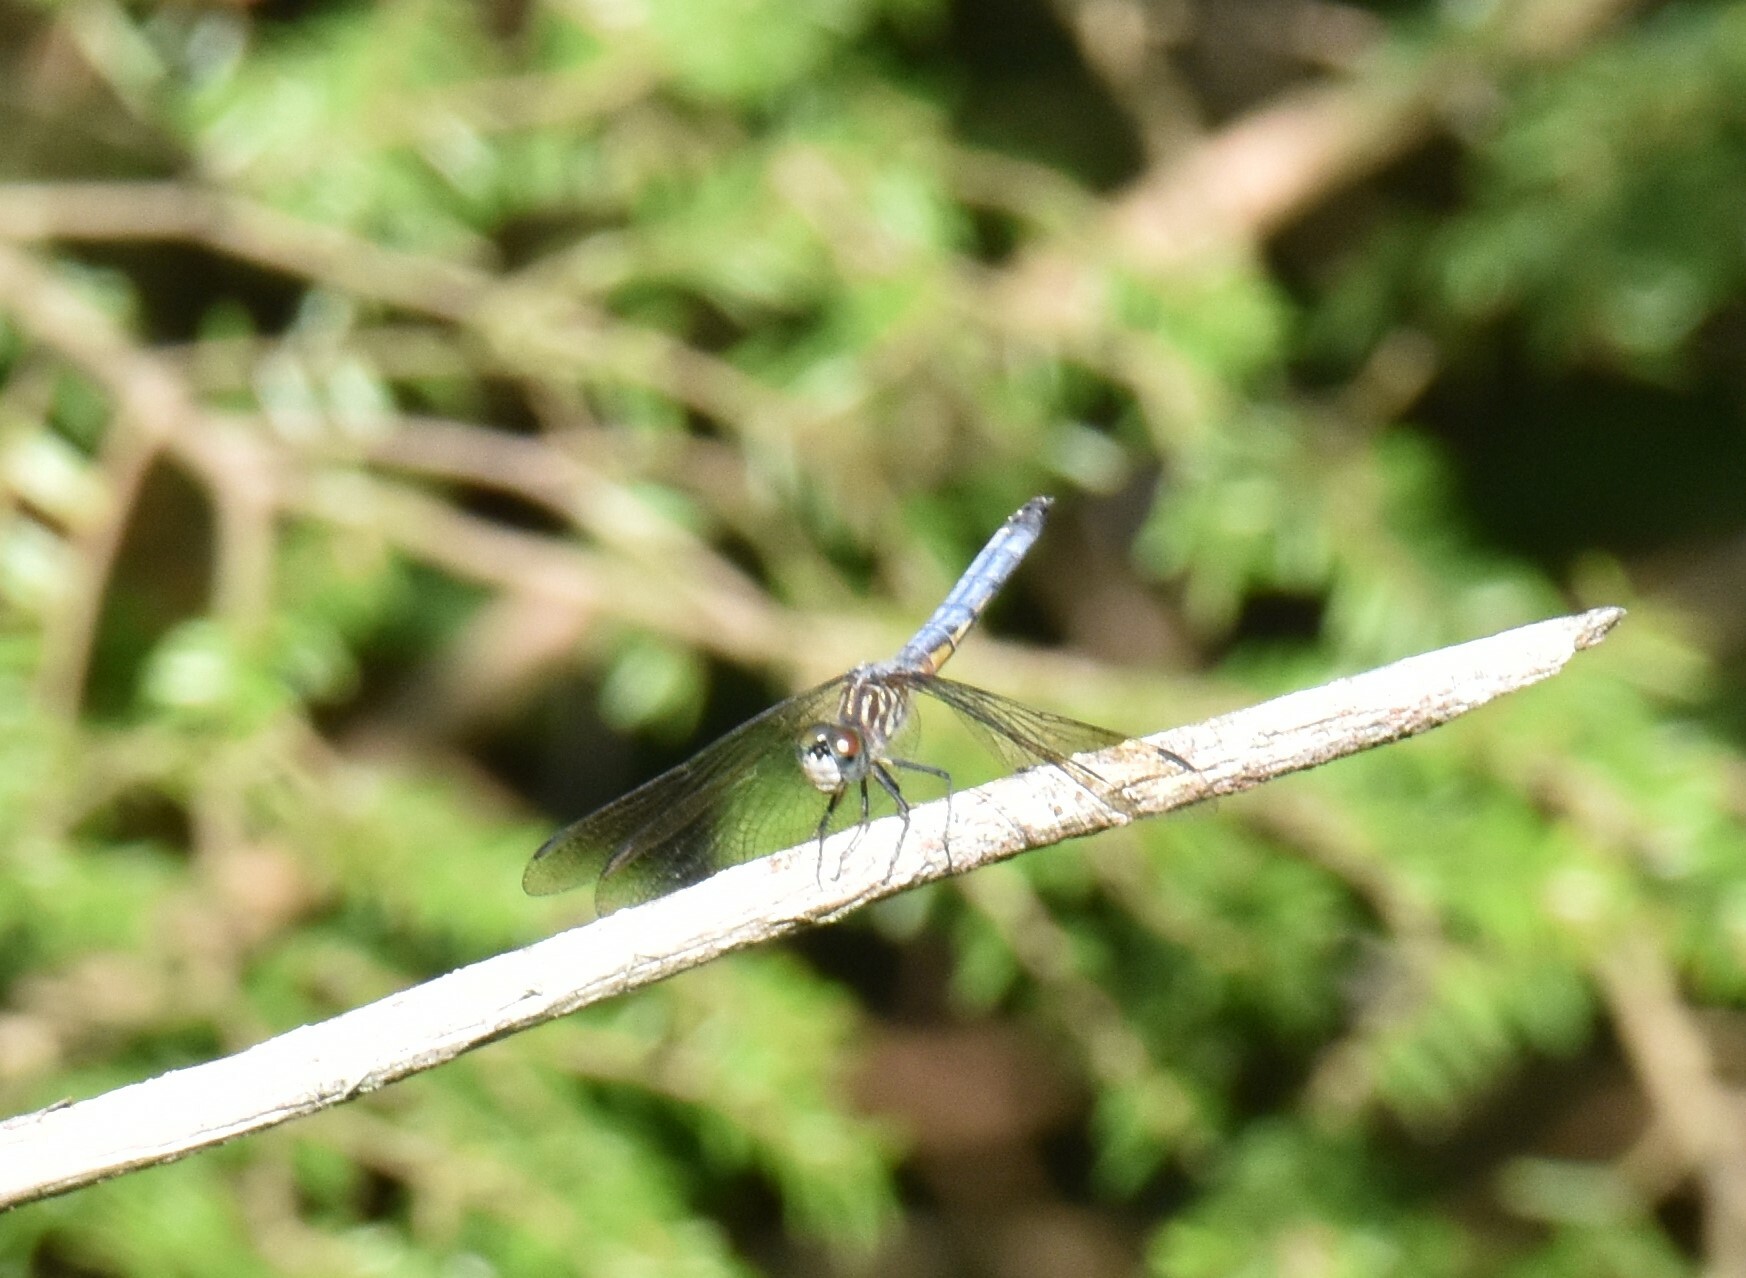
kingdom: Animalia
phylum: Arthropoda
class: Insecta
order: Odonata
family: Libellulidae
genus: Pachydiplax
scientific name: Pachydiplax longipennis
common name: Blue dasher
